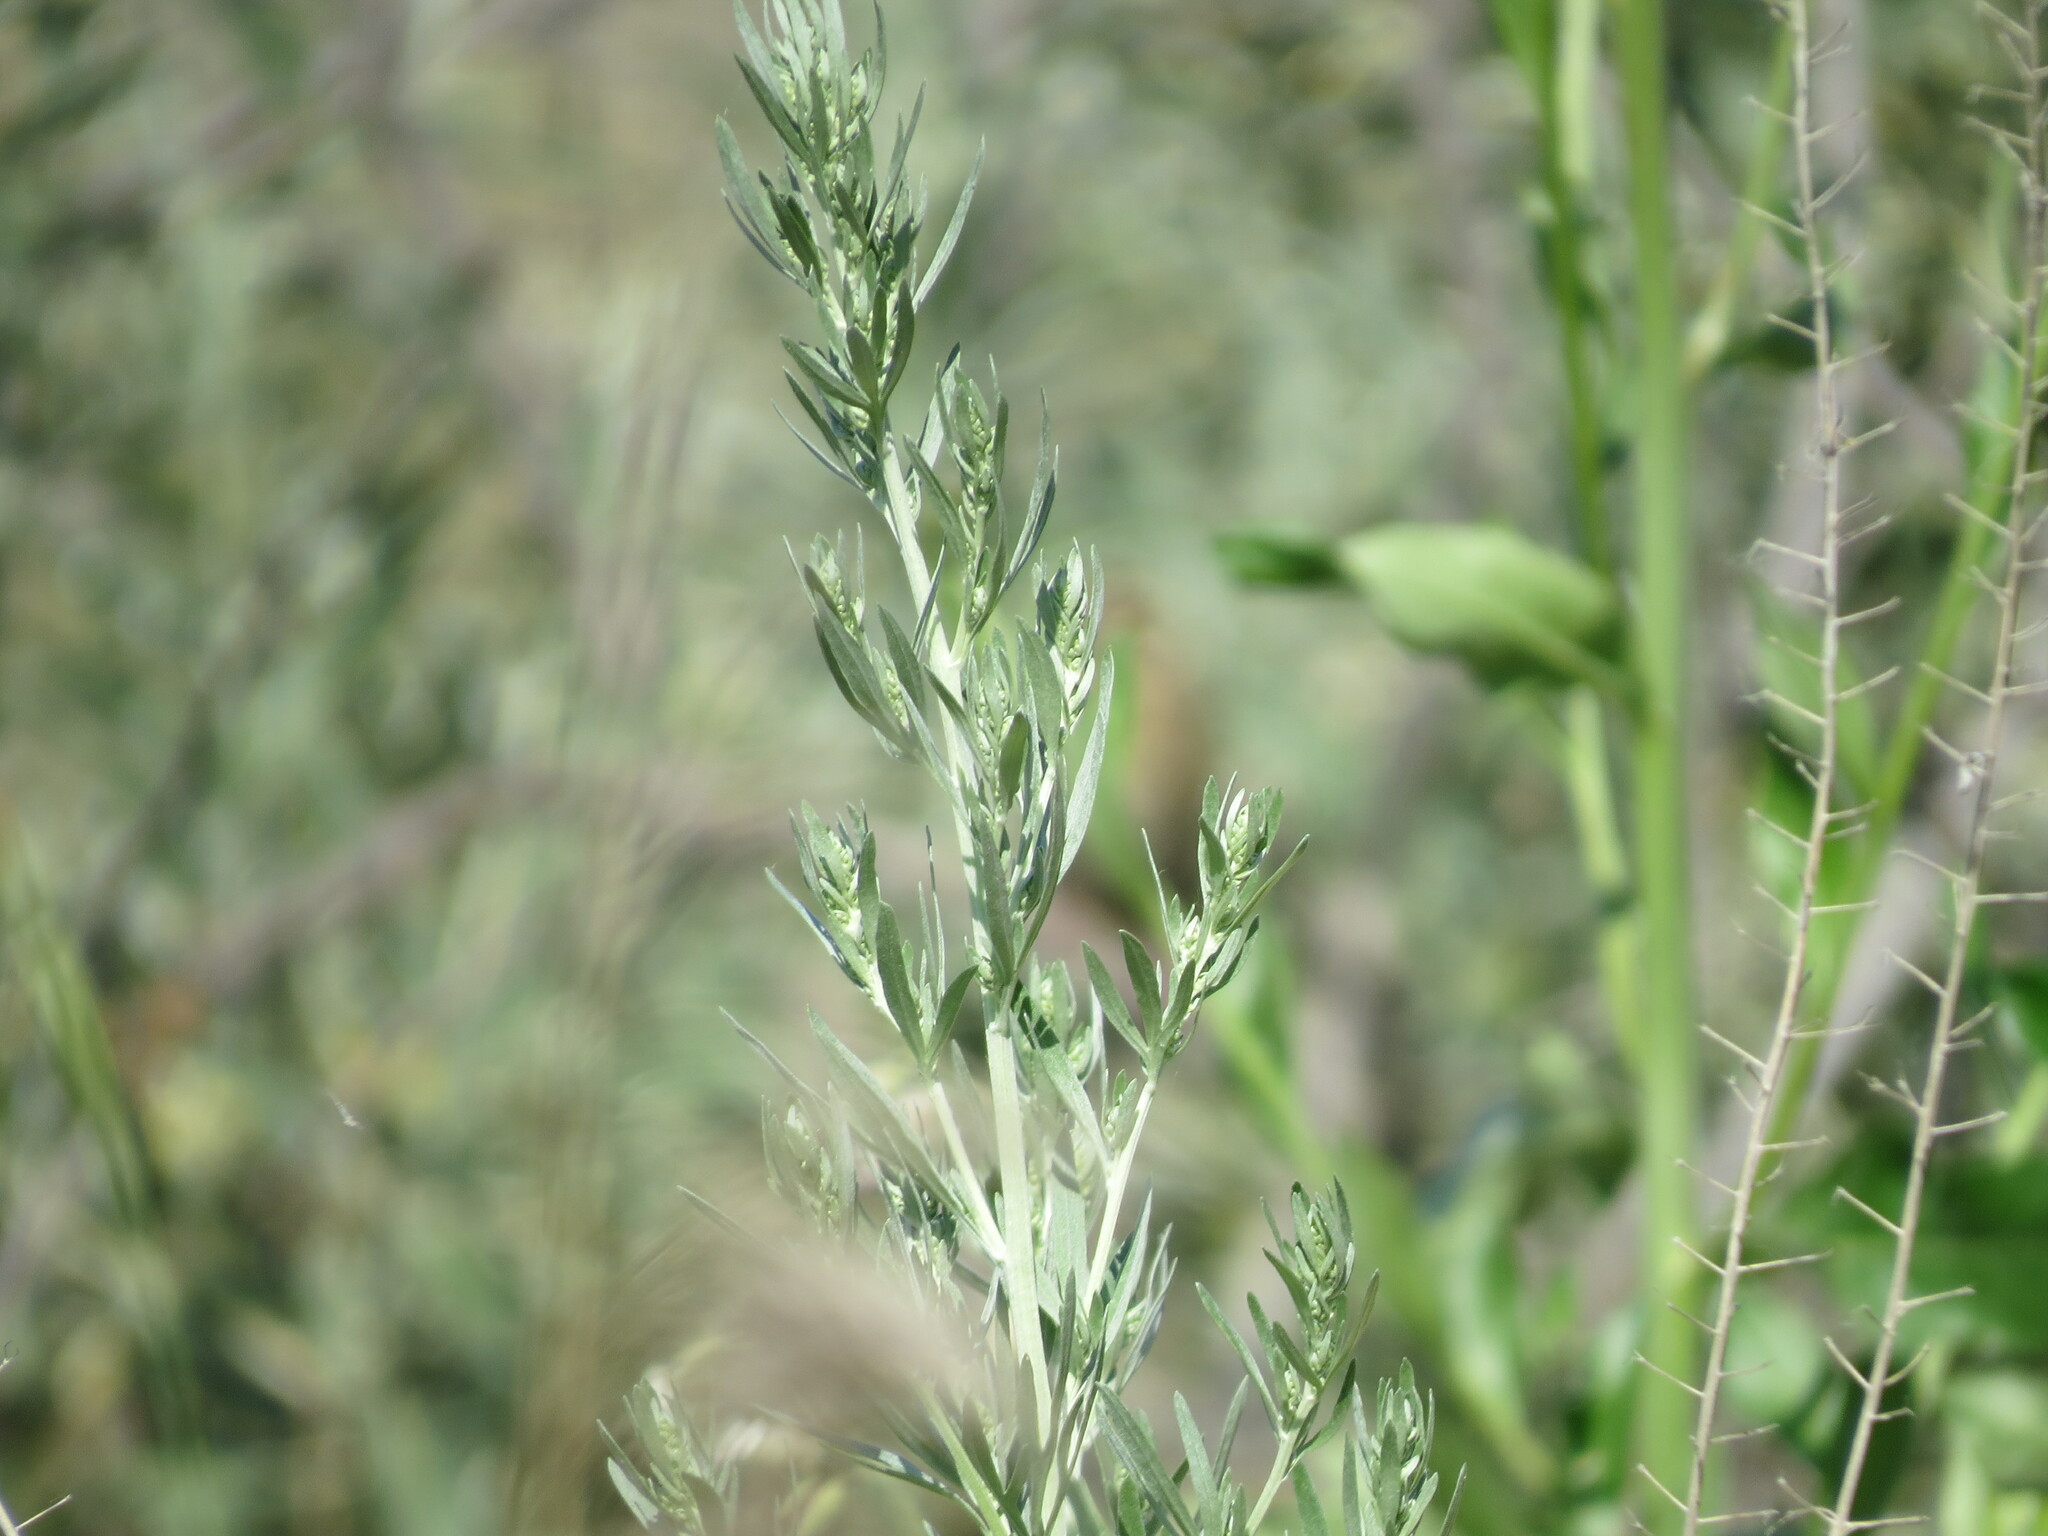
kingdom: Plantae
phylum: Tracheophyta
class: Magnoliopsida
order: Asterales
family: Asteraceae
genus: Artemisia
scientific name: Artemisia absinthium
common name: Wormwood
